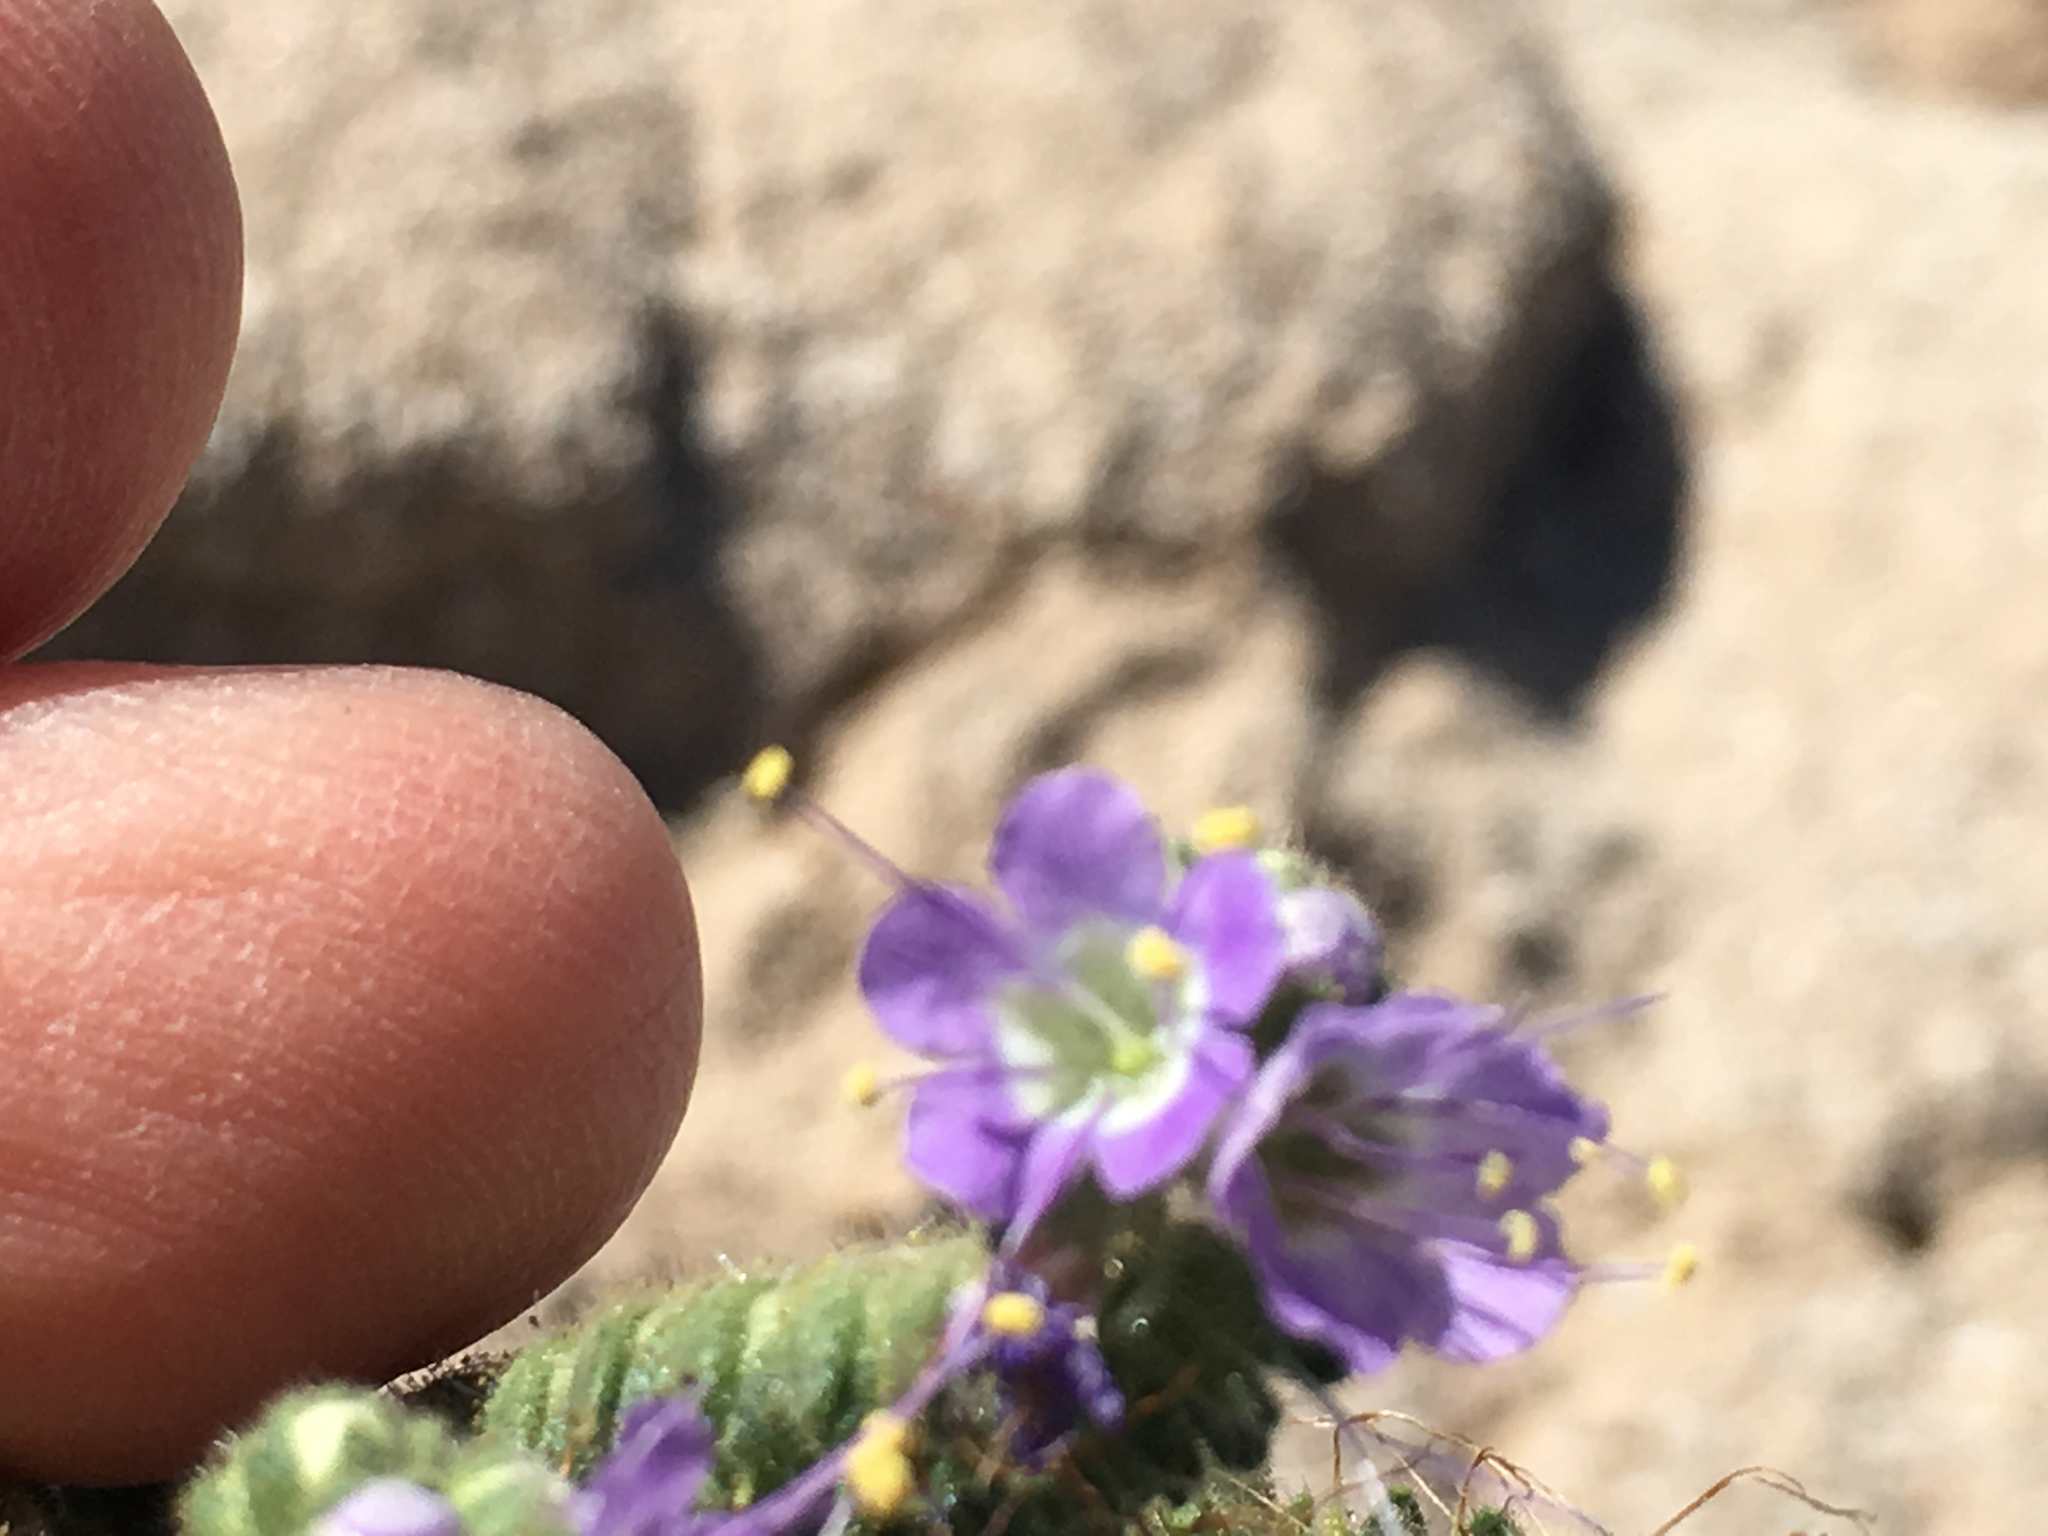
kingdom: Plantae
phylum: Tracheophyta
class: Magnoliopsida
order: Boraginales
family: Hydrophyllaceae
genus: Phacelia
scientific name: Phacelia crenulata
